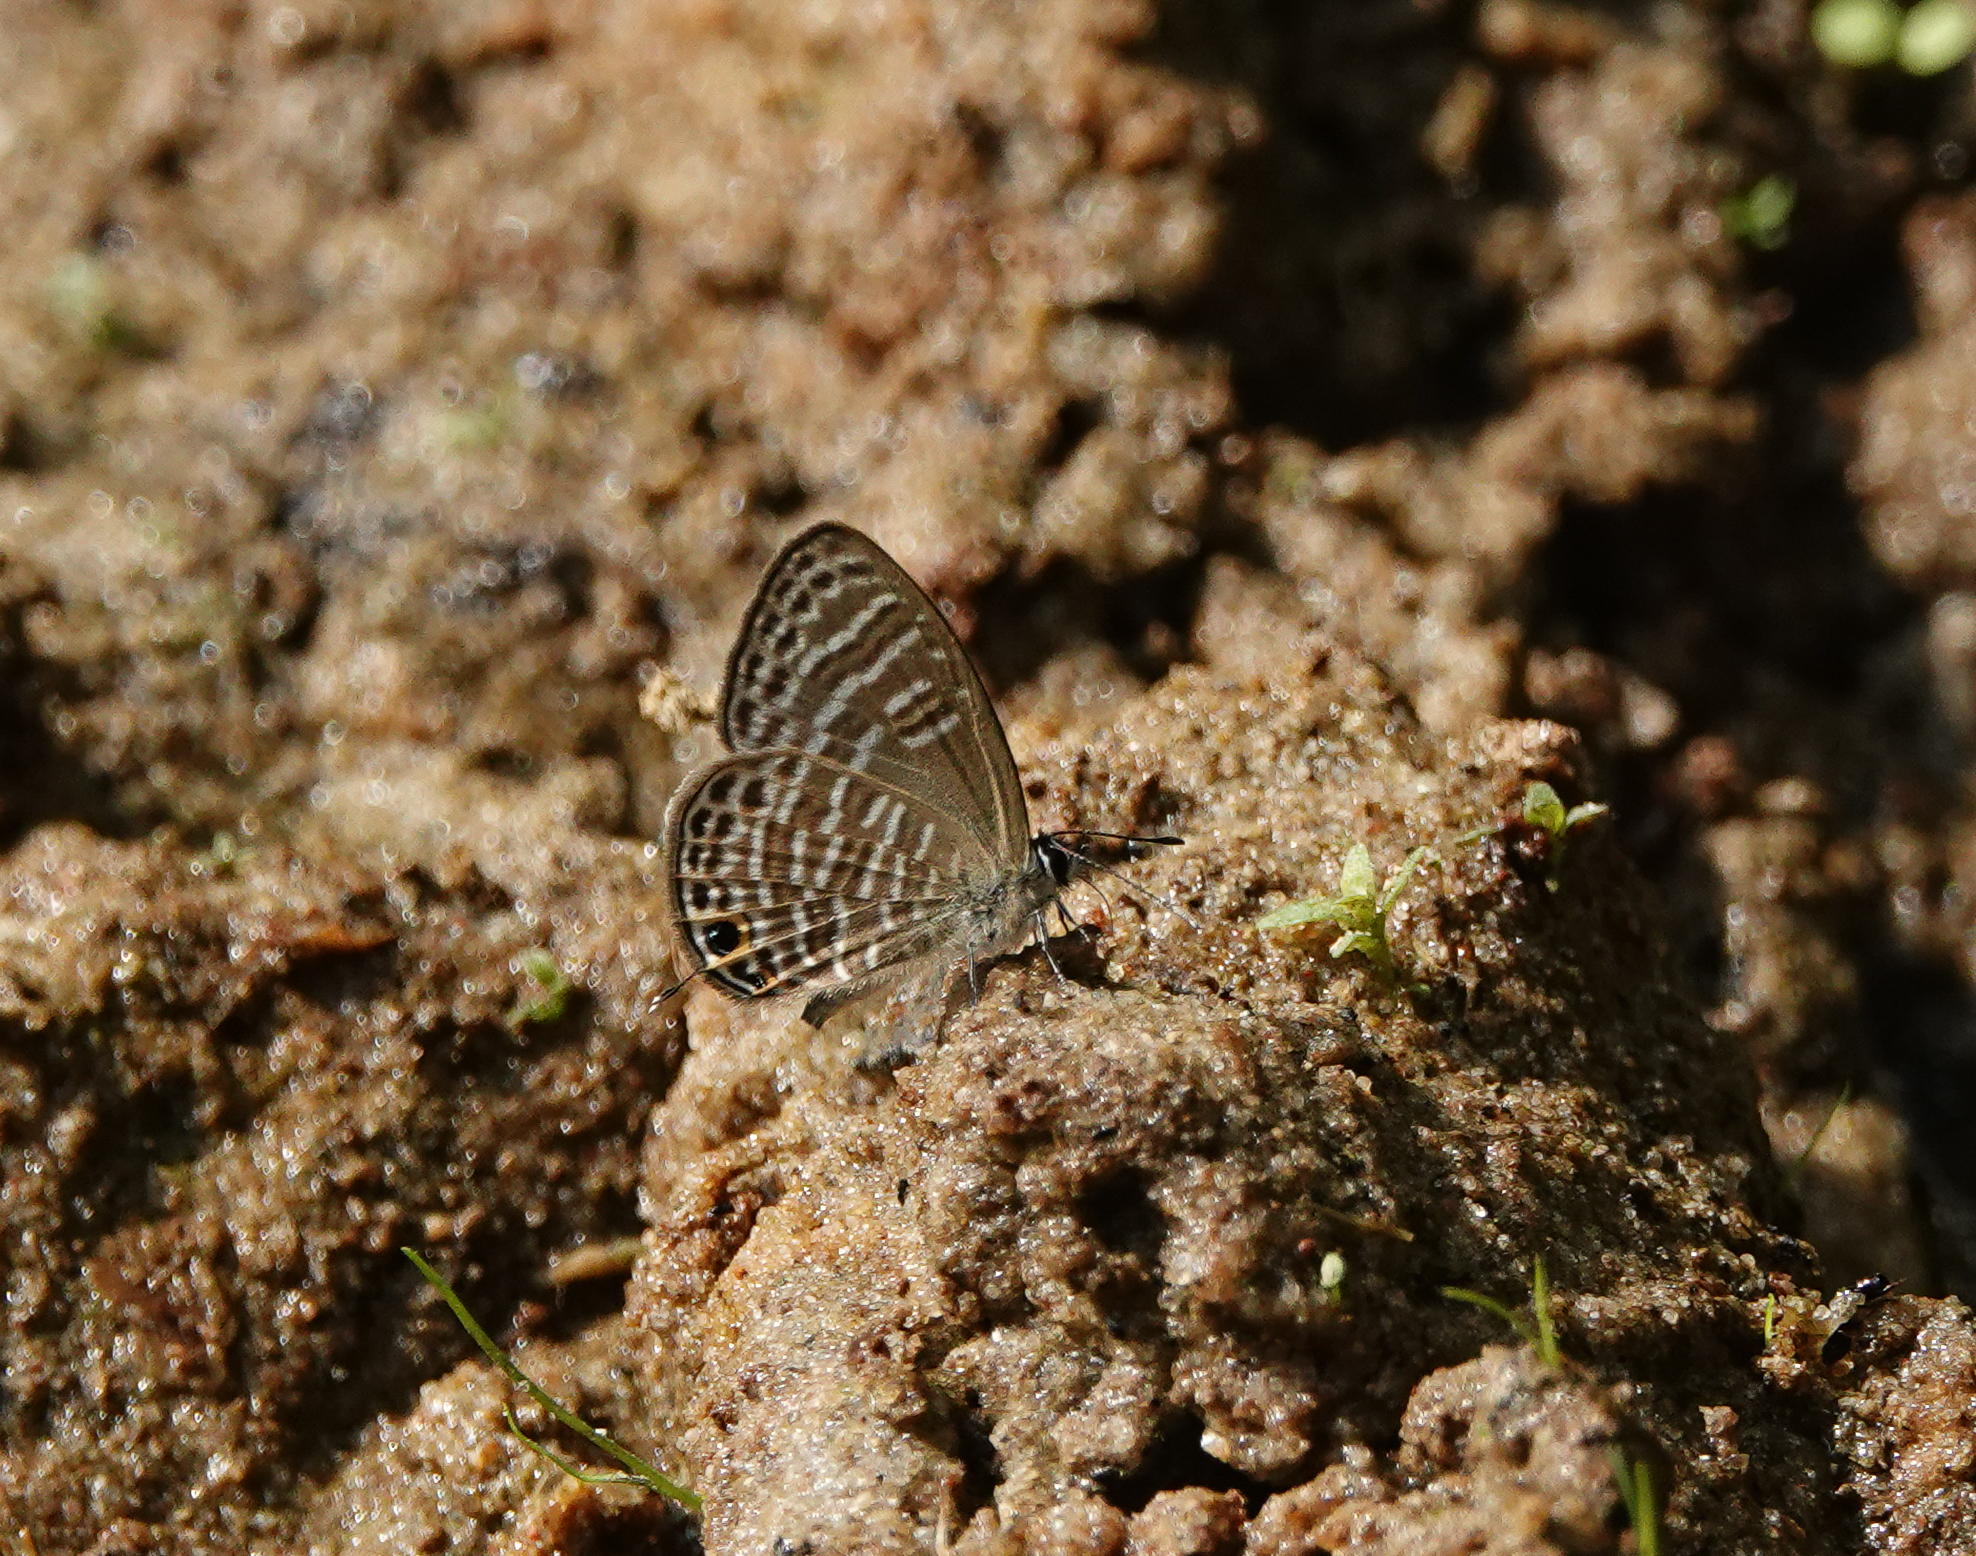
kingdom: Animalia
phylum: Arthropoda
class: Insecta
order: Lepidoptera
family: Lycaenidae
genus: Nacaduba
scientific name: Nacaduba hermus
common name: Pale four-line blue
